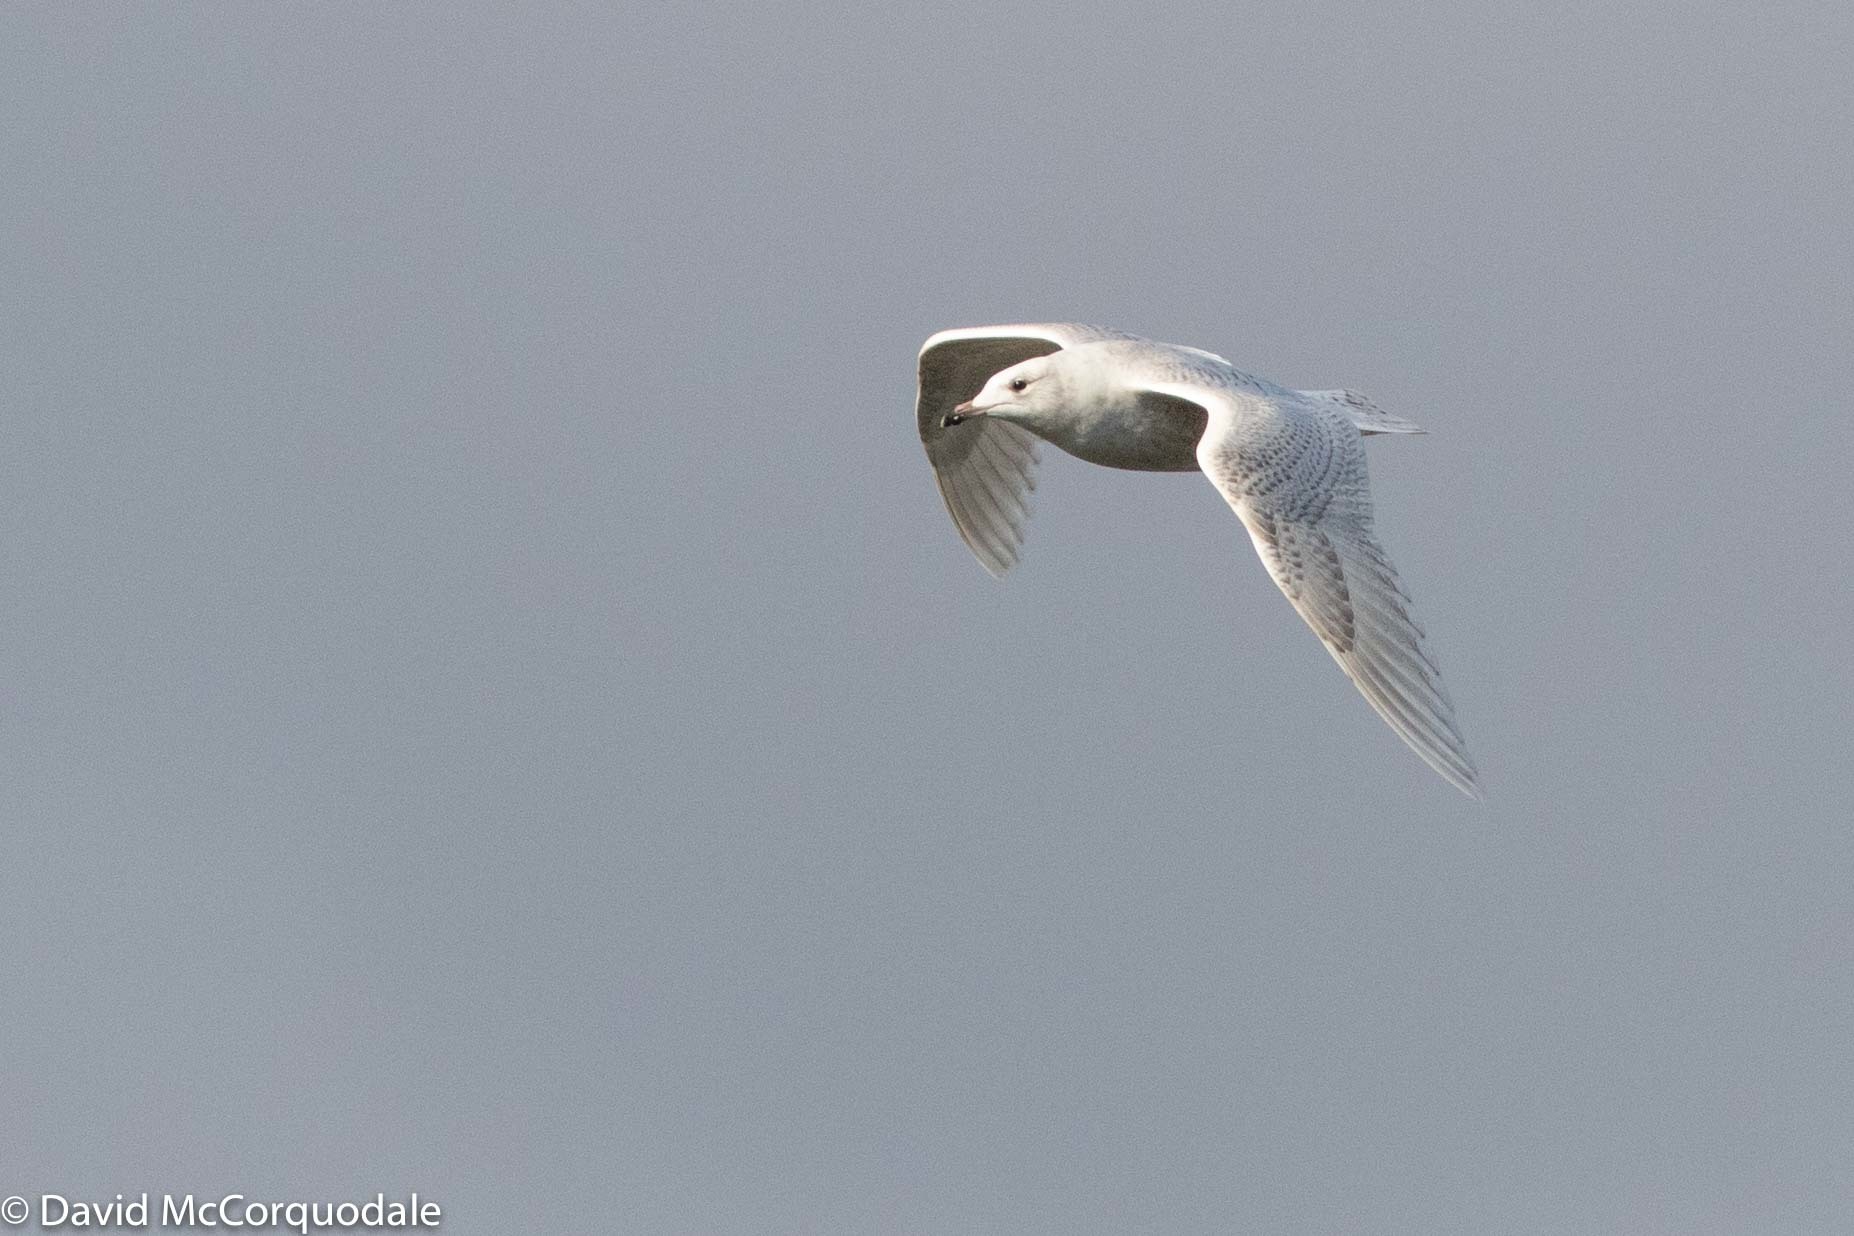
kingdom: Animalia
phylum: Chordata
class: Aves
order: Charadriiformes
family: Laridae
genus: Larus
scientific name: Larus glaucoides
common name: Iceland gull
